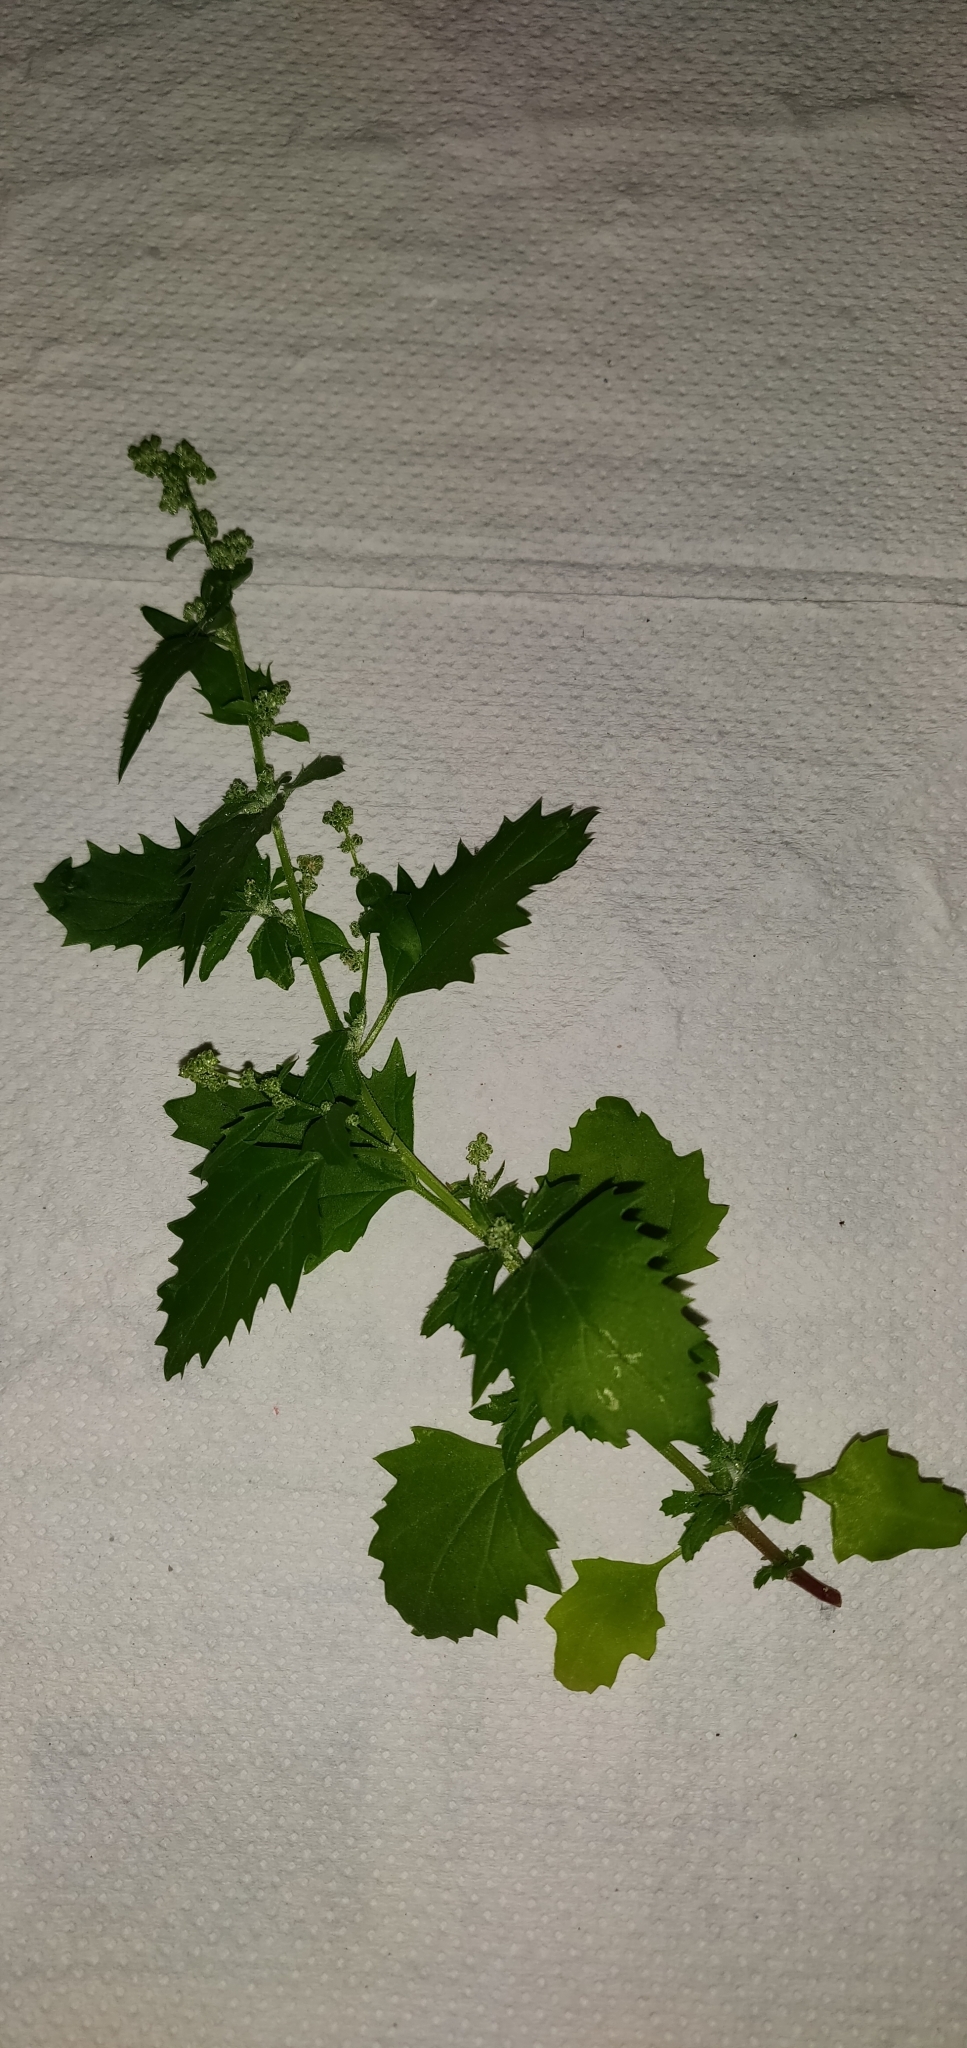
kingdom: Plantae
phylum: Tracheophyta
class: Magnoliopsida
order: Caryophyllales
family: Amaranthaceae
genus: Chenopodiastrum
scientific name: Chenopodiastrum murale
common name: Sowbane
